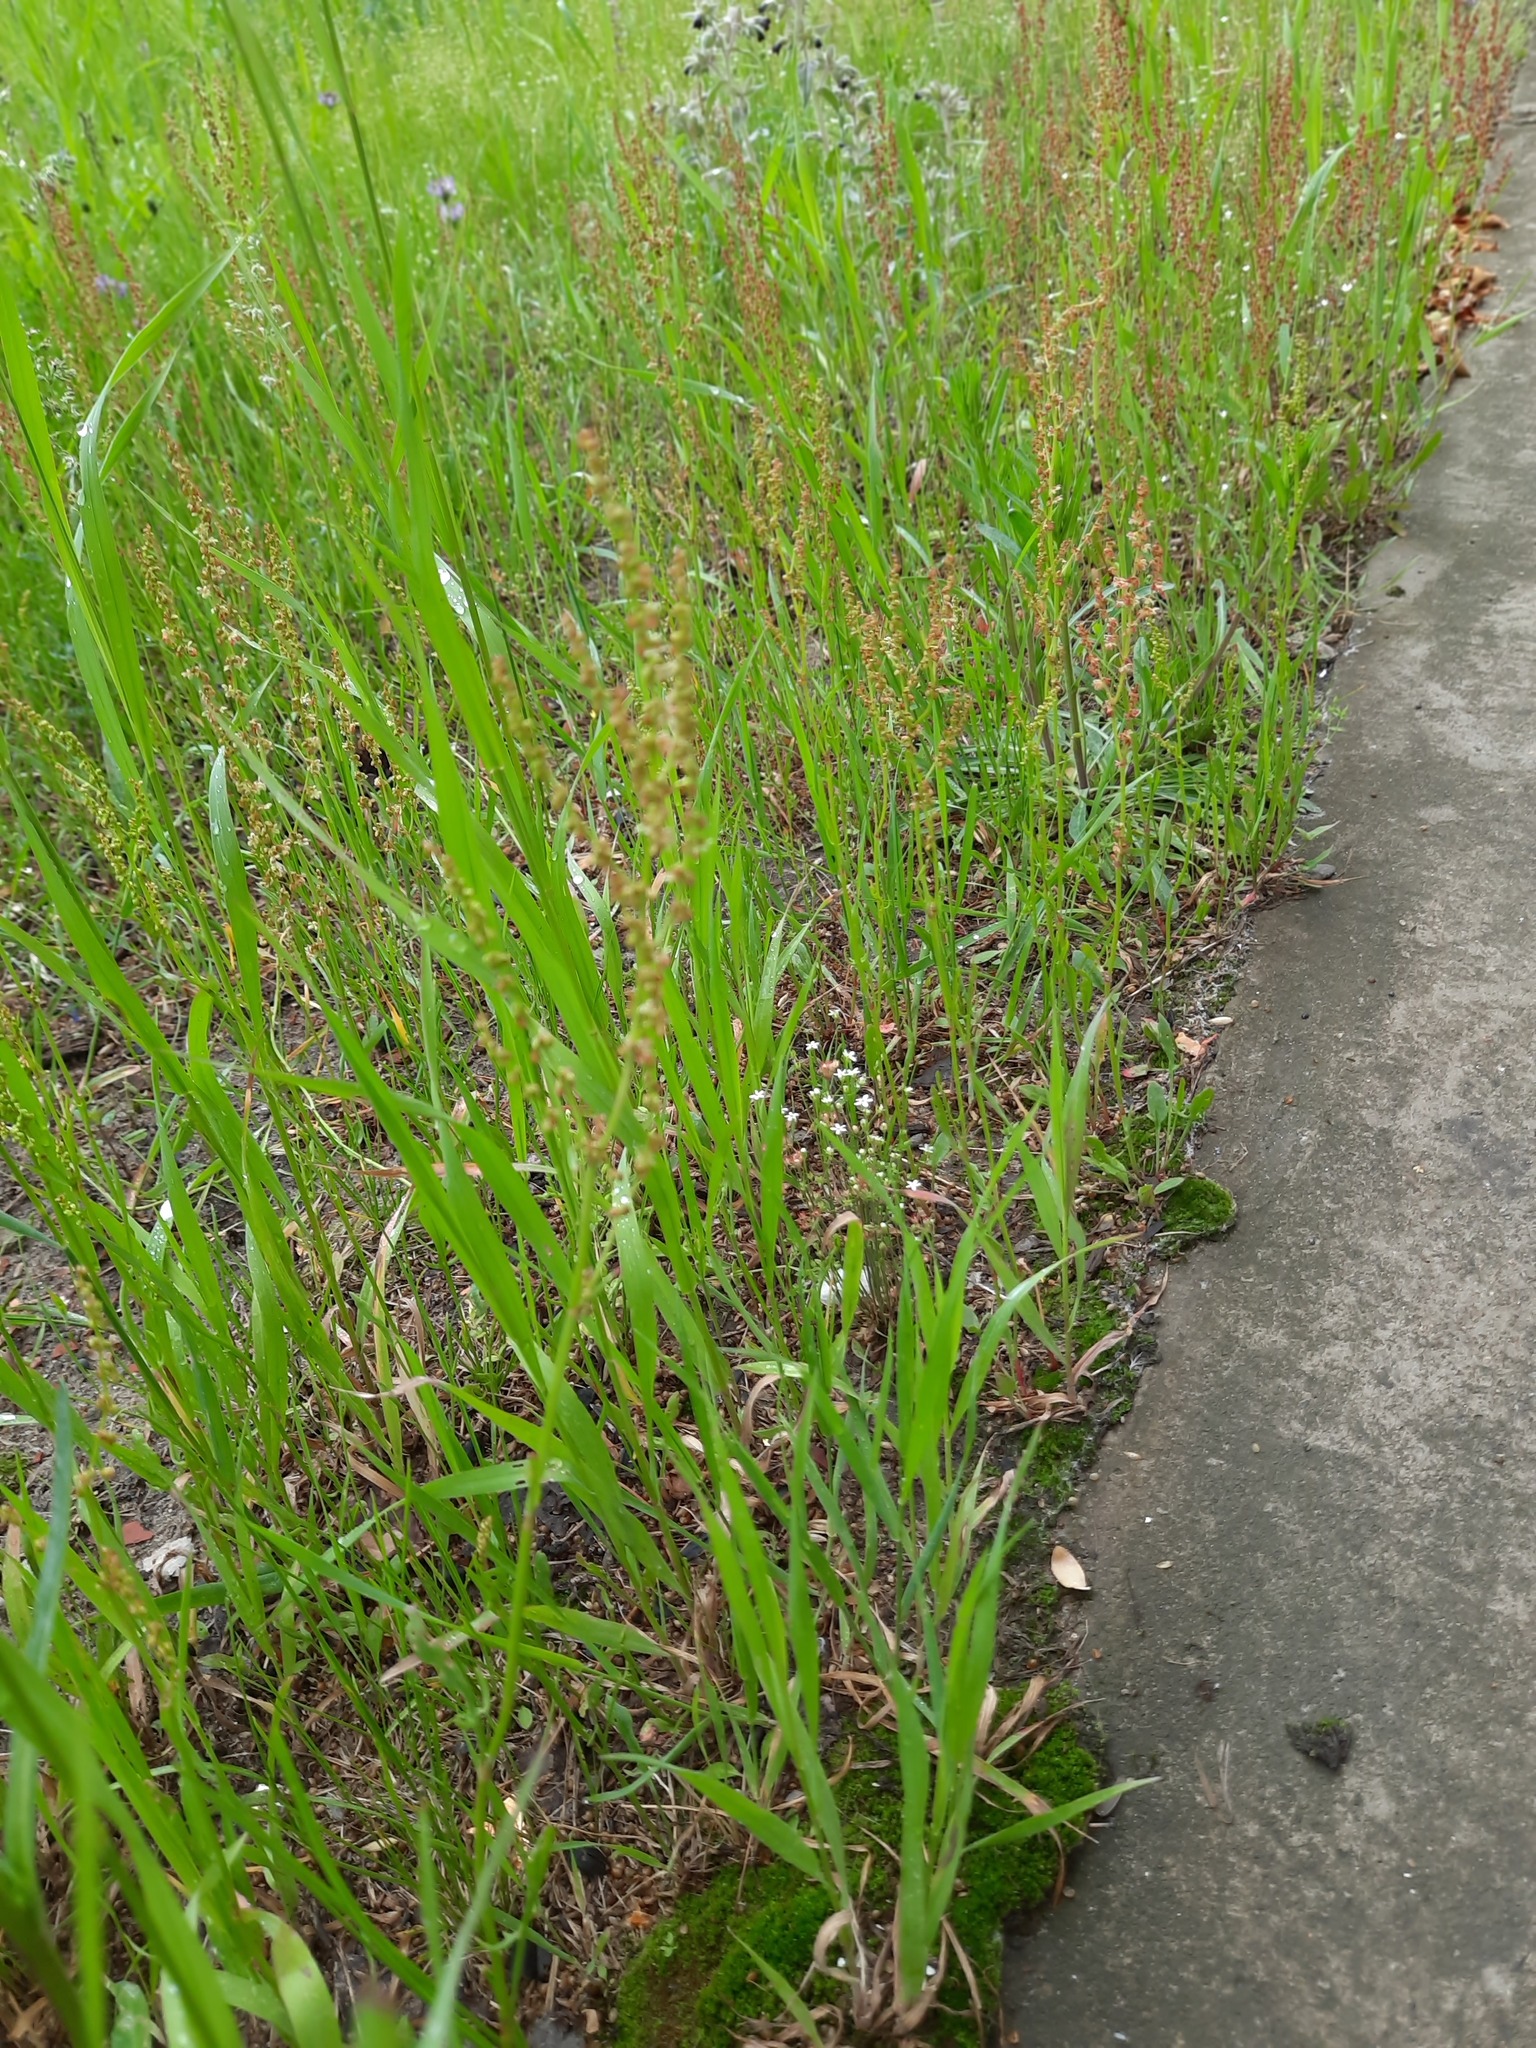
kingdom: Plantae
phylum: Tracheophyta
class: Magnoliopsida
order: Caryophyllales
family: Polygonaceae
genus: Rumex
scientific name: Rumex acetosella
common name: Common sheep sorrel
